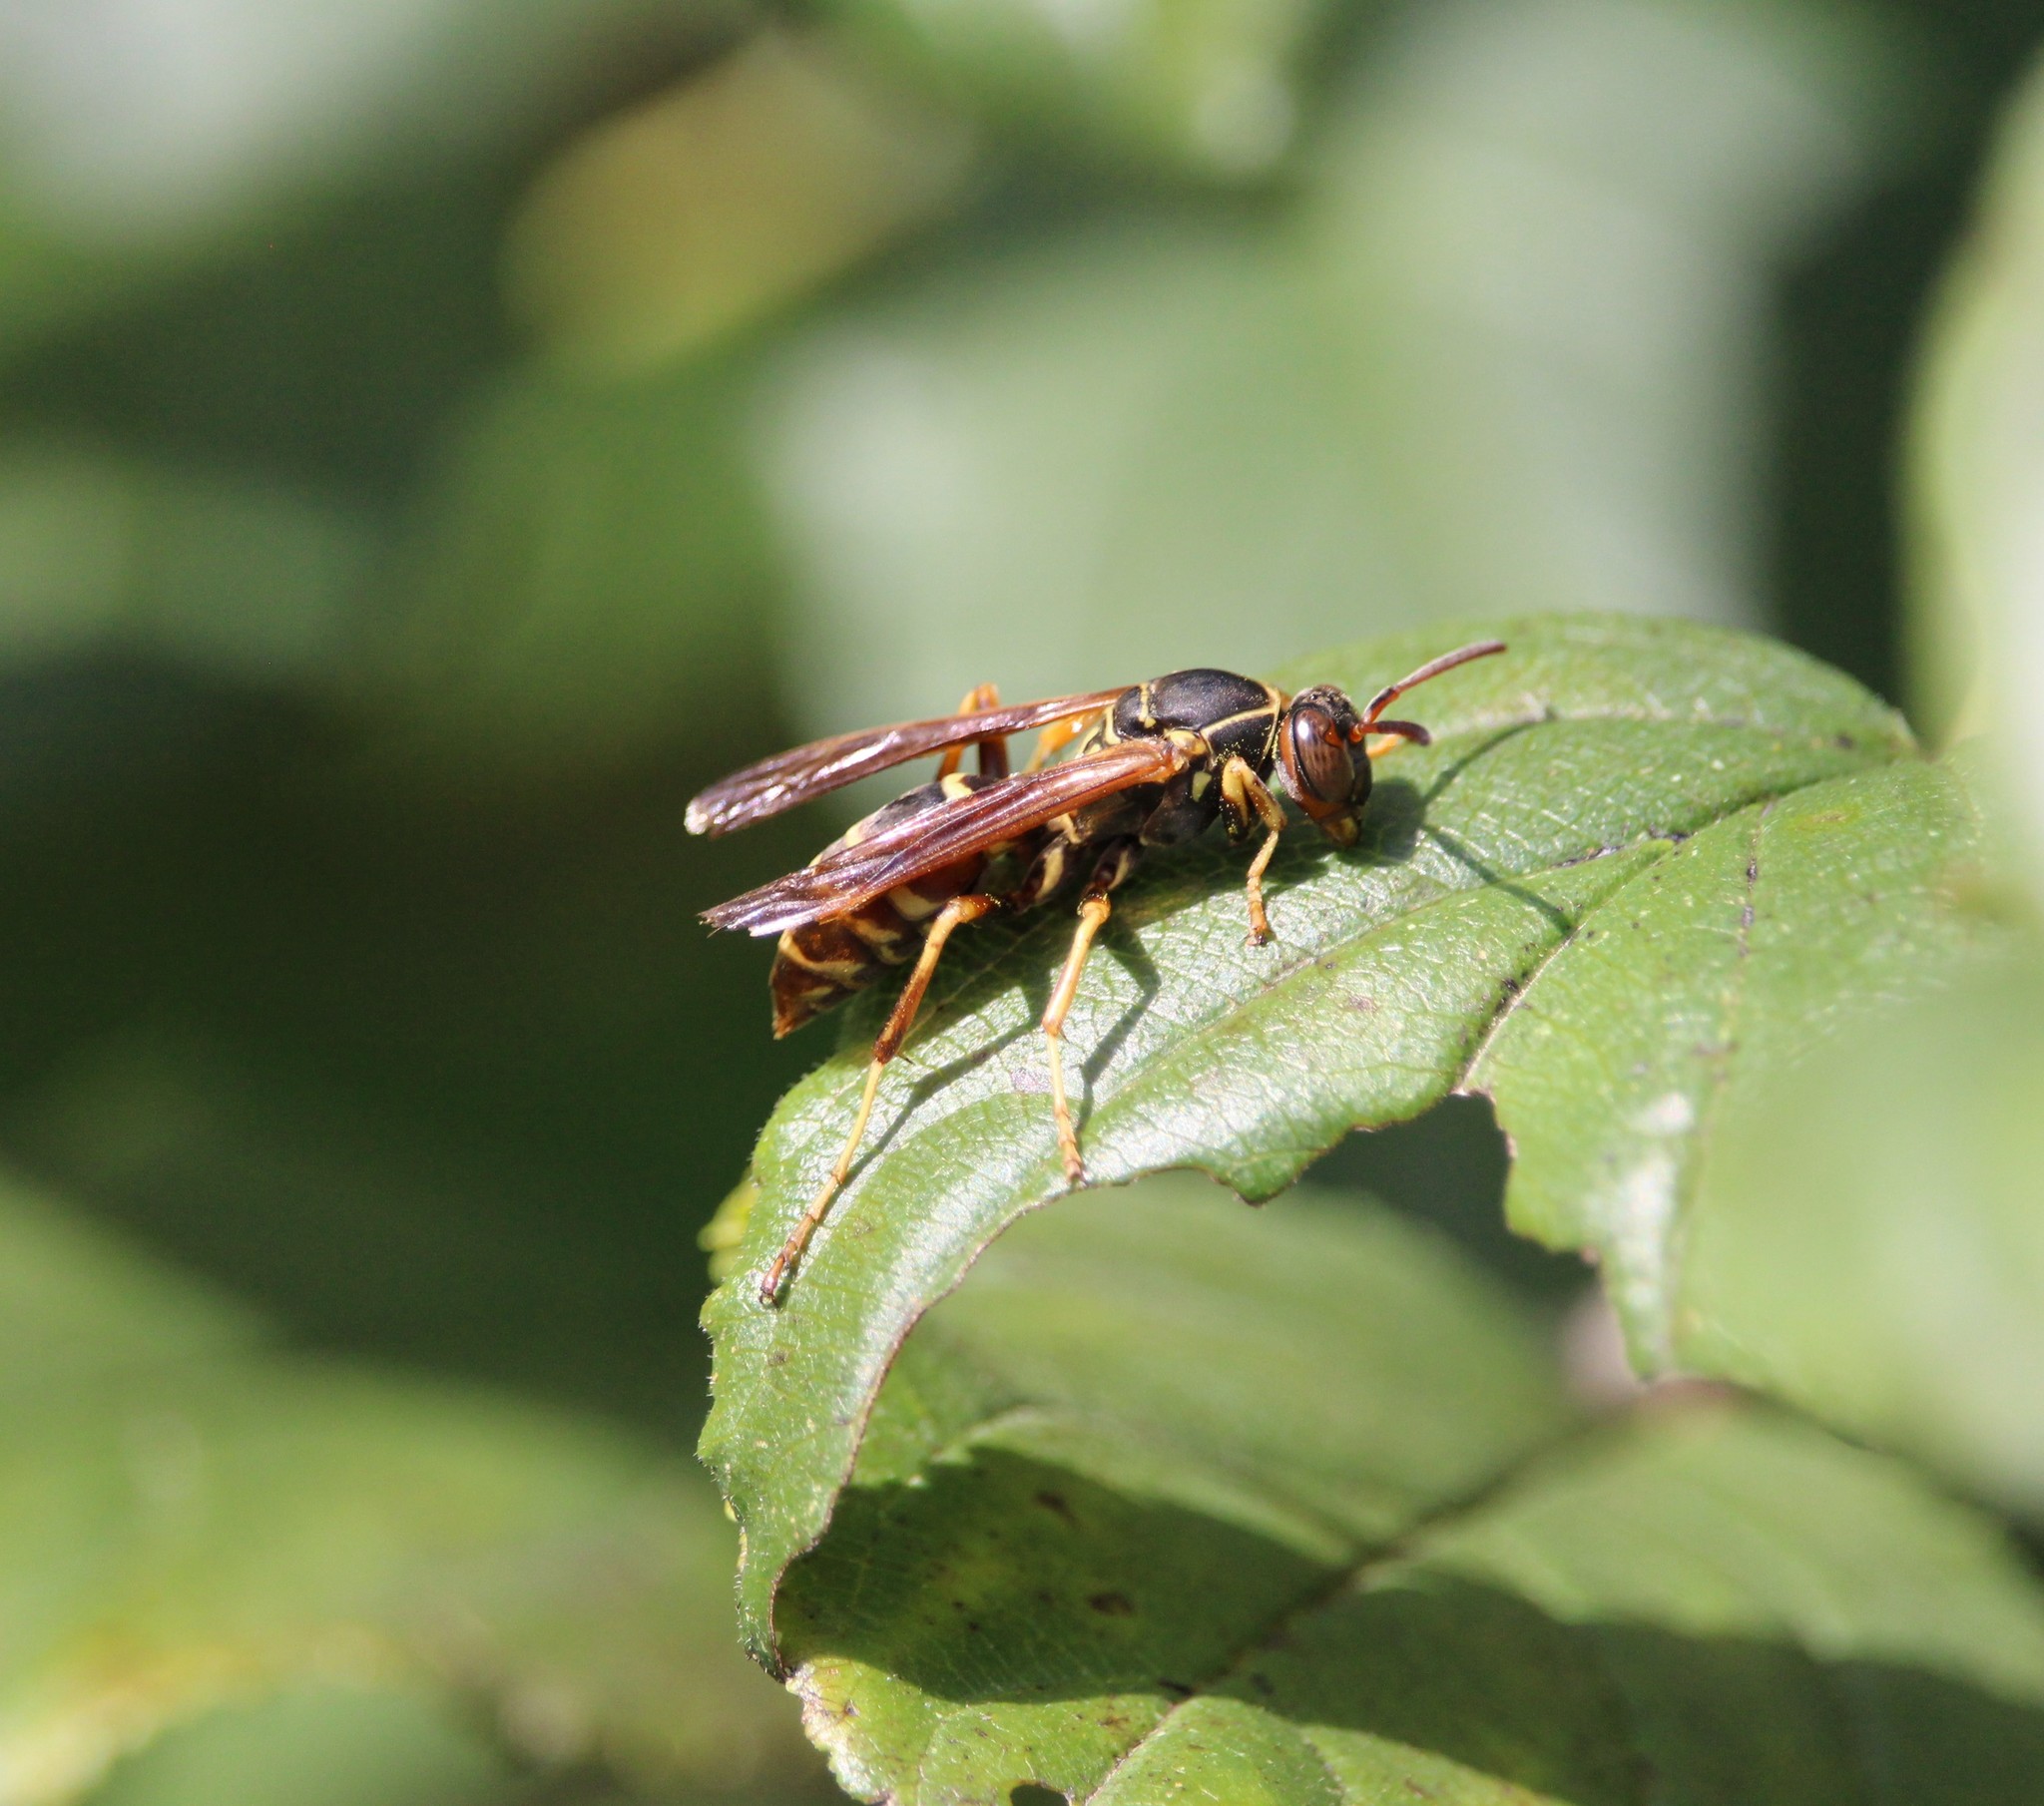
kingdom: Animalia
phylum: Arthropoda
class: Insecta
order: Hymenoptera
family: Eumenidae
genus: Polistes
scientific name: Polistes fuscatus
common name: Dark paper wasp
